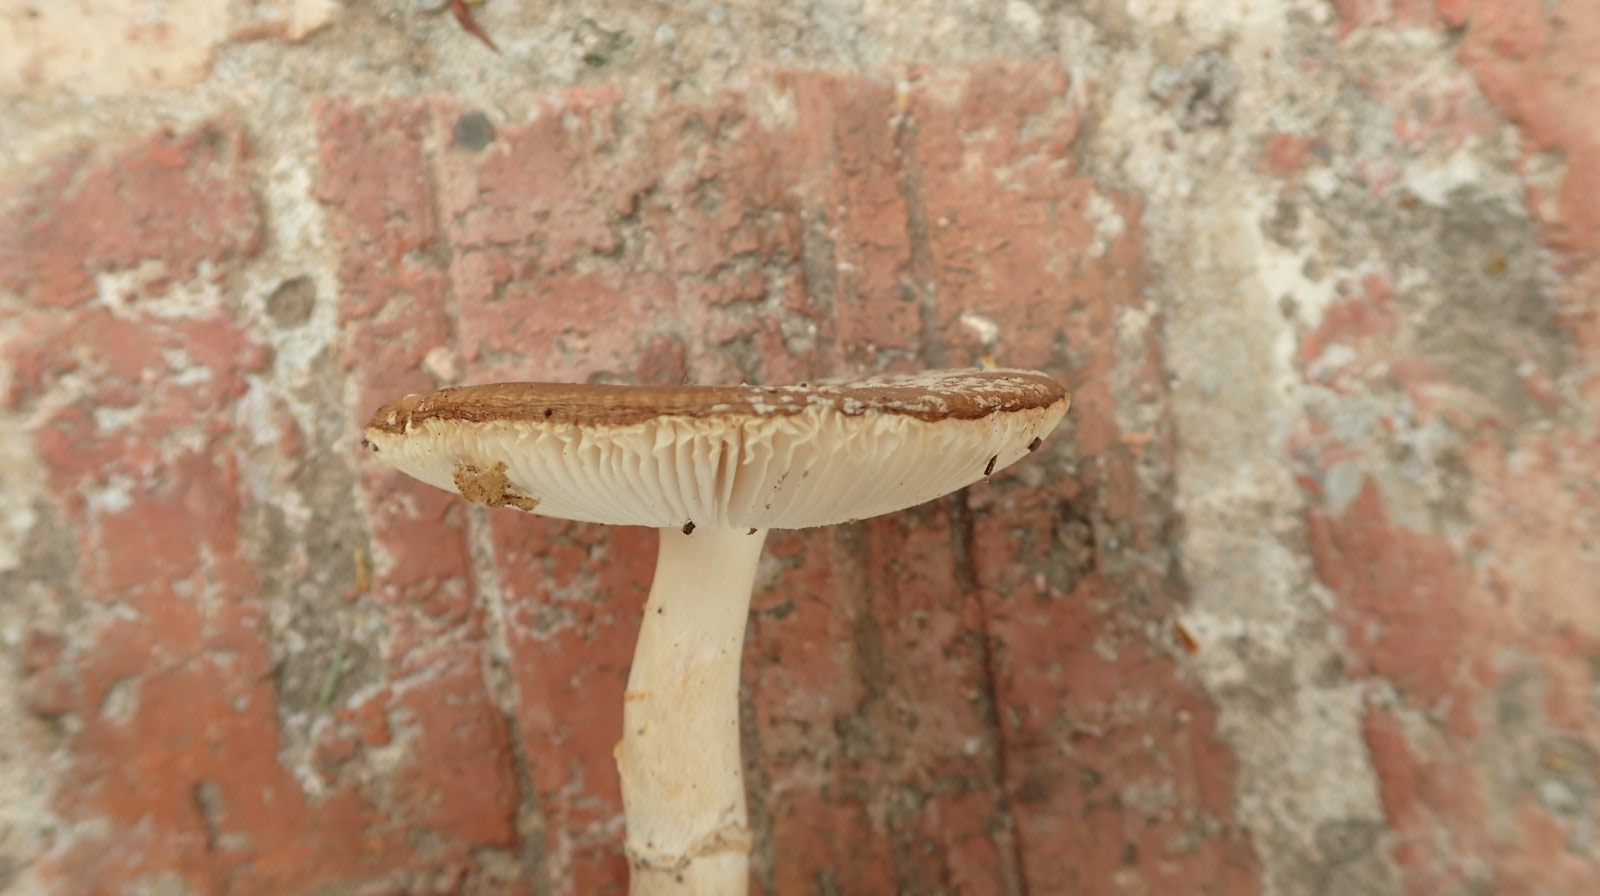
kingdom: Fungi
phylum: Basidiomycota
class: Agaricomycetes
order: Agaricales
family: Amanitaceae
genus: Amanita
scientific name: Amanita pantherina
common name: Panthercap
